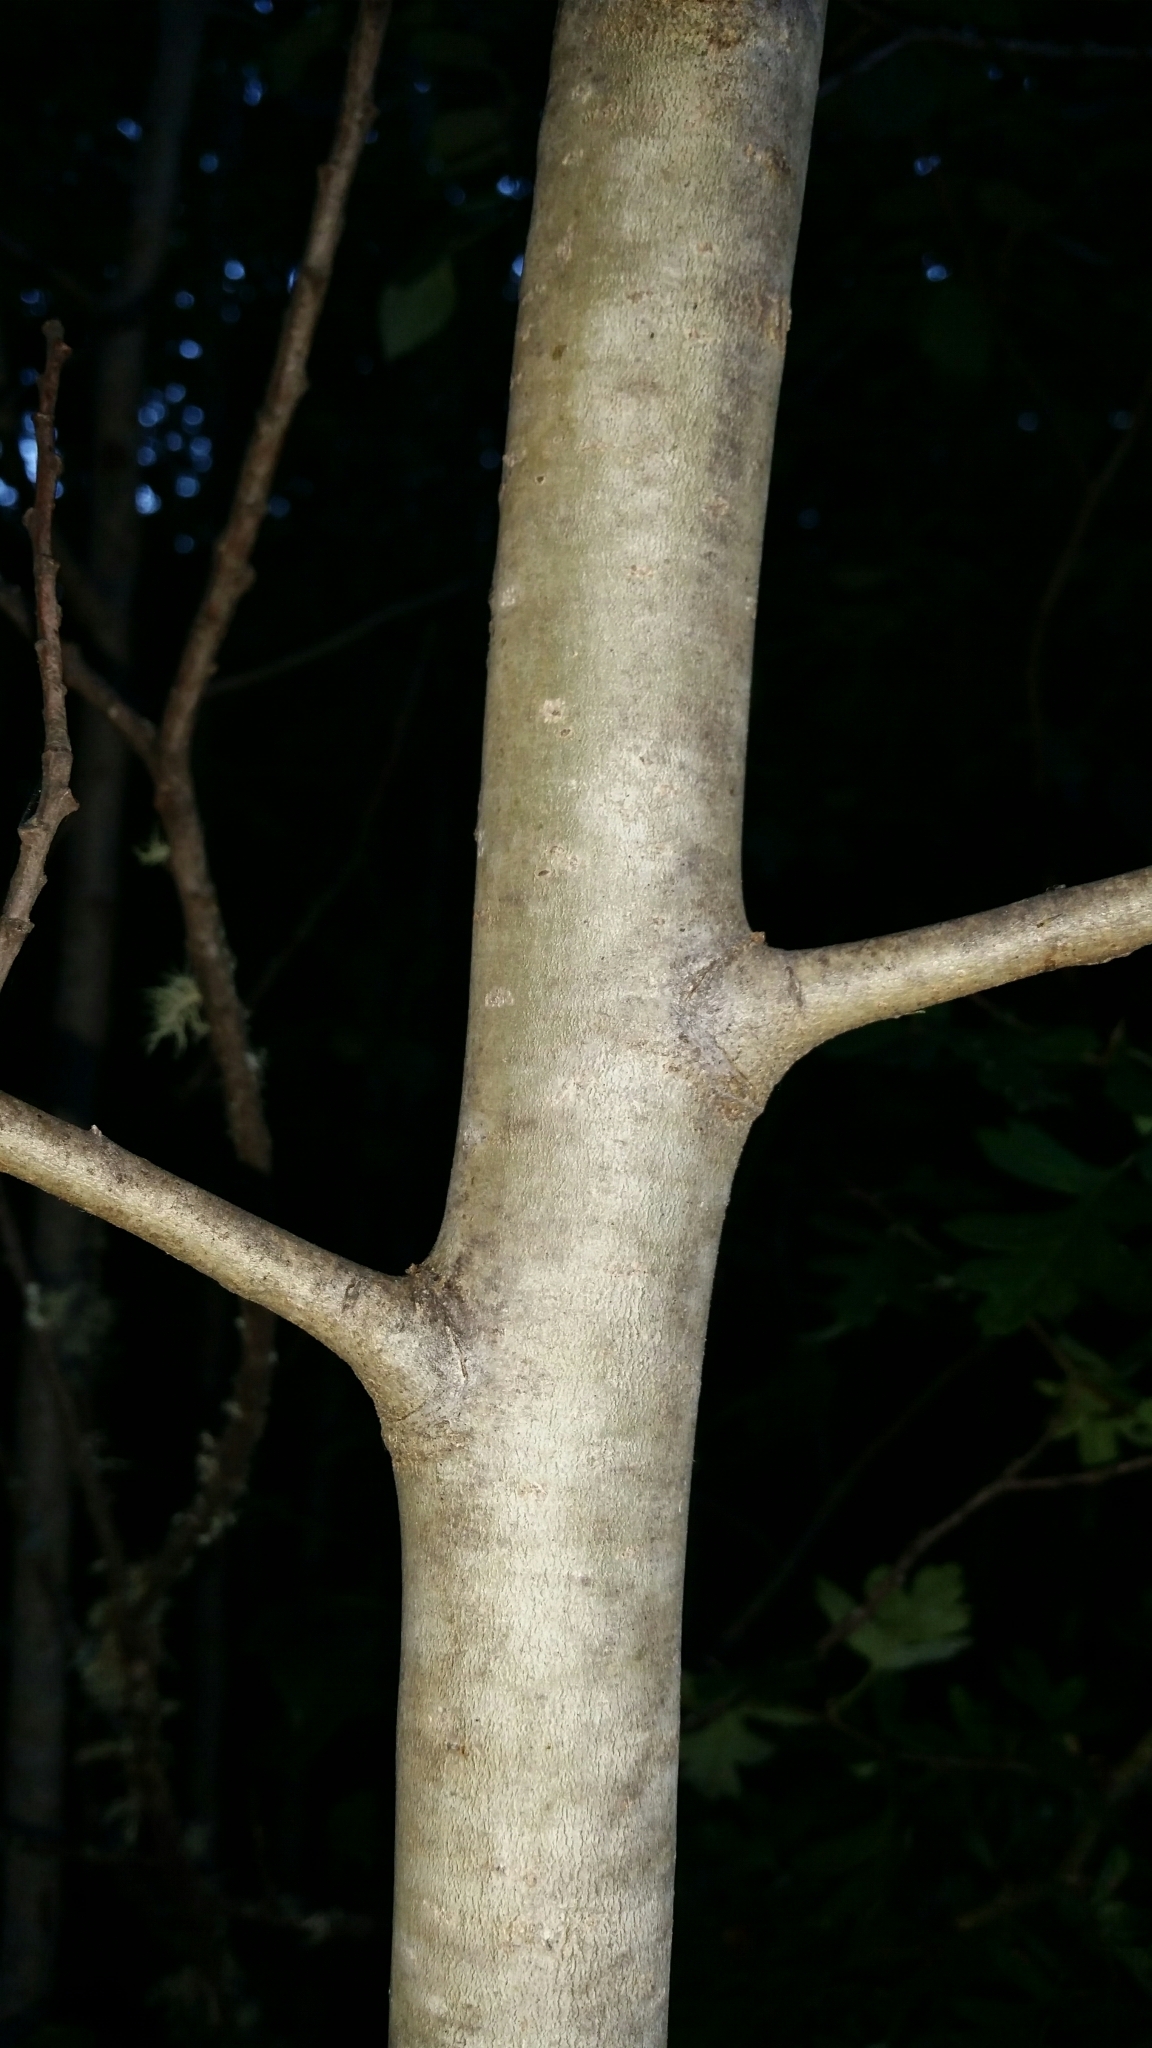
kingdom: Plantae
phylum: Tracheophyta
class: Magnoliopsida
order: Malpighiales
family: Salicaceae
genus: Populus
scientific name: Populus tremuloides
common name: Quaking aspen
